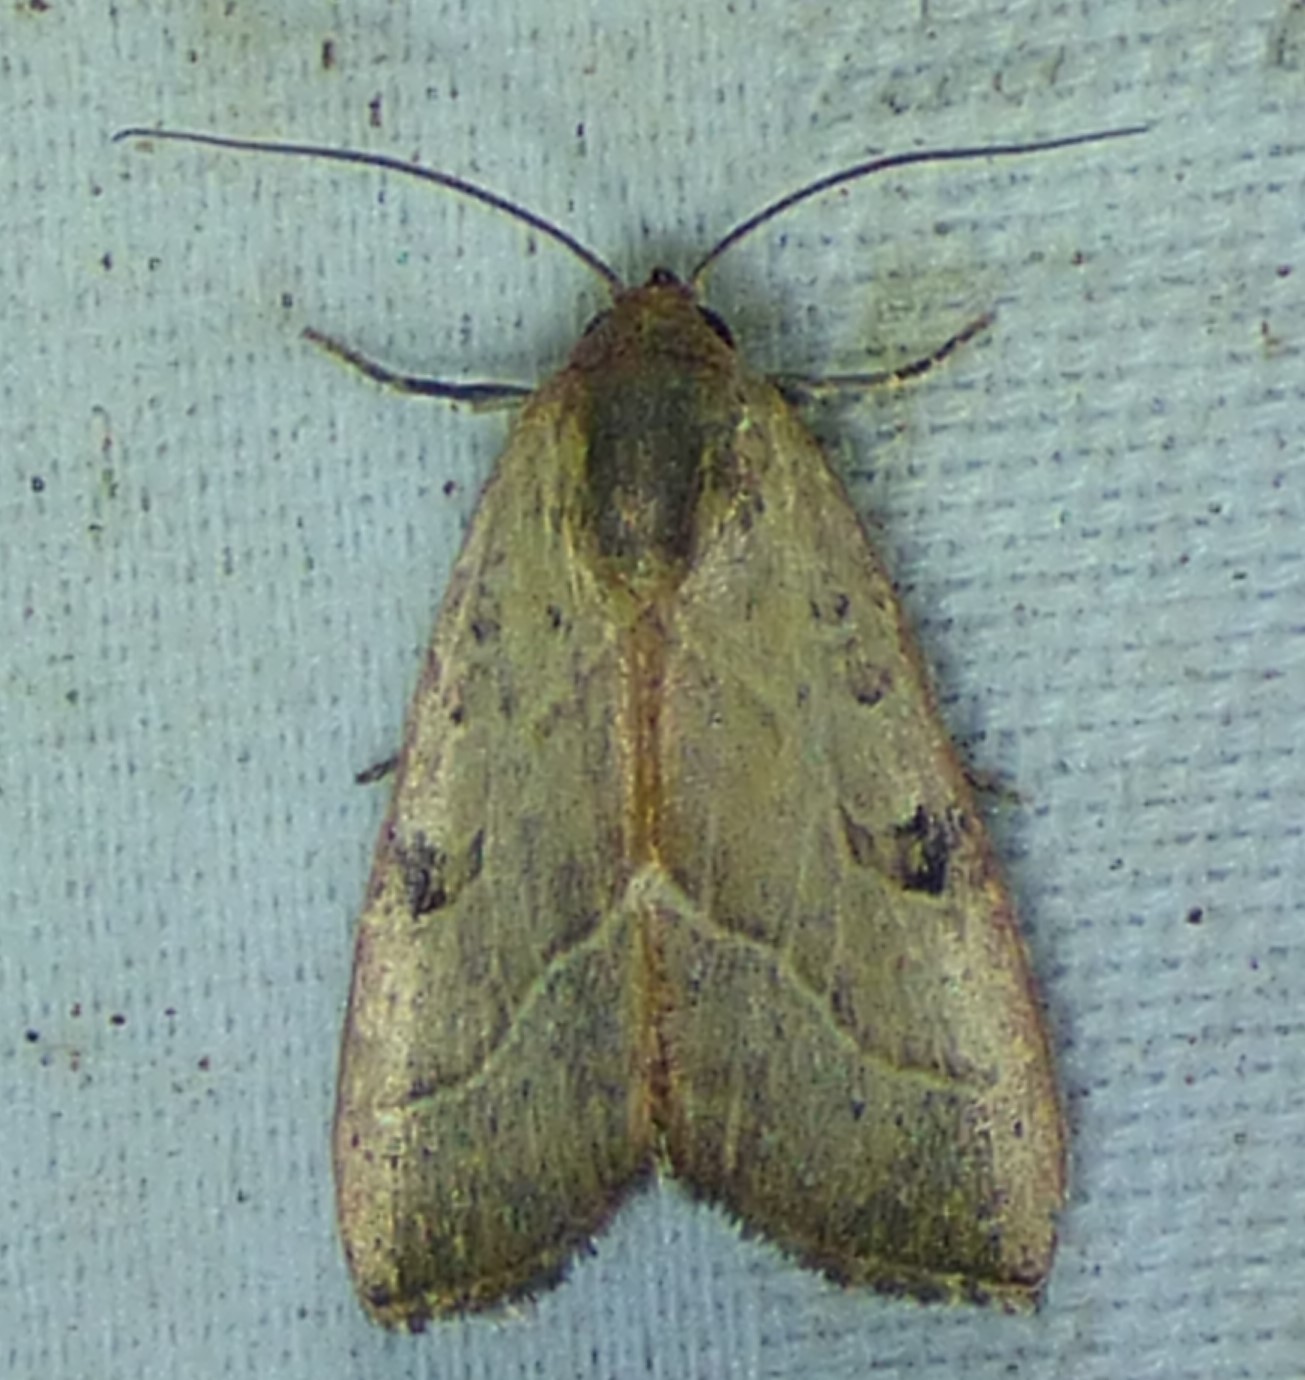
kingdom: Animalia
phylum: Arthropoda
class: Insecta
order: Lepidoptera
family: Noctuidae
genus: Galgula
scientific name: Galgula partita
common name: Wedgeling
